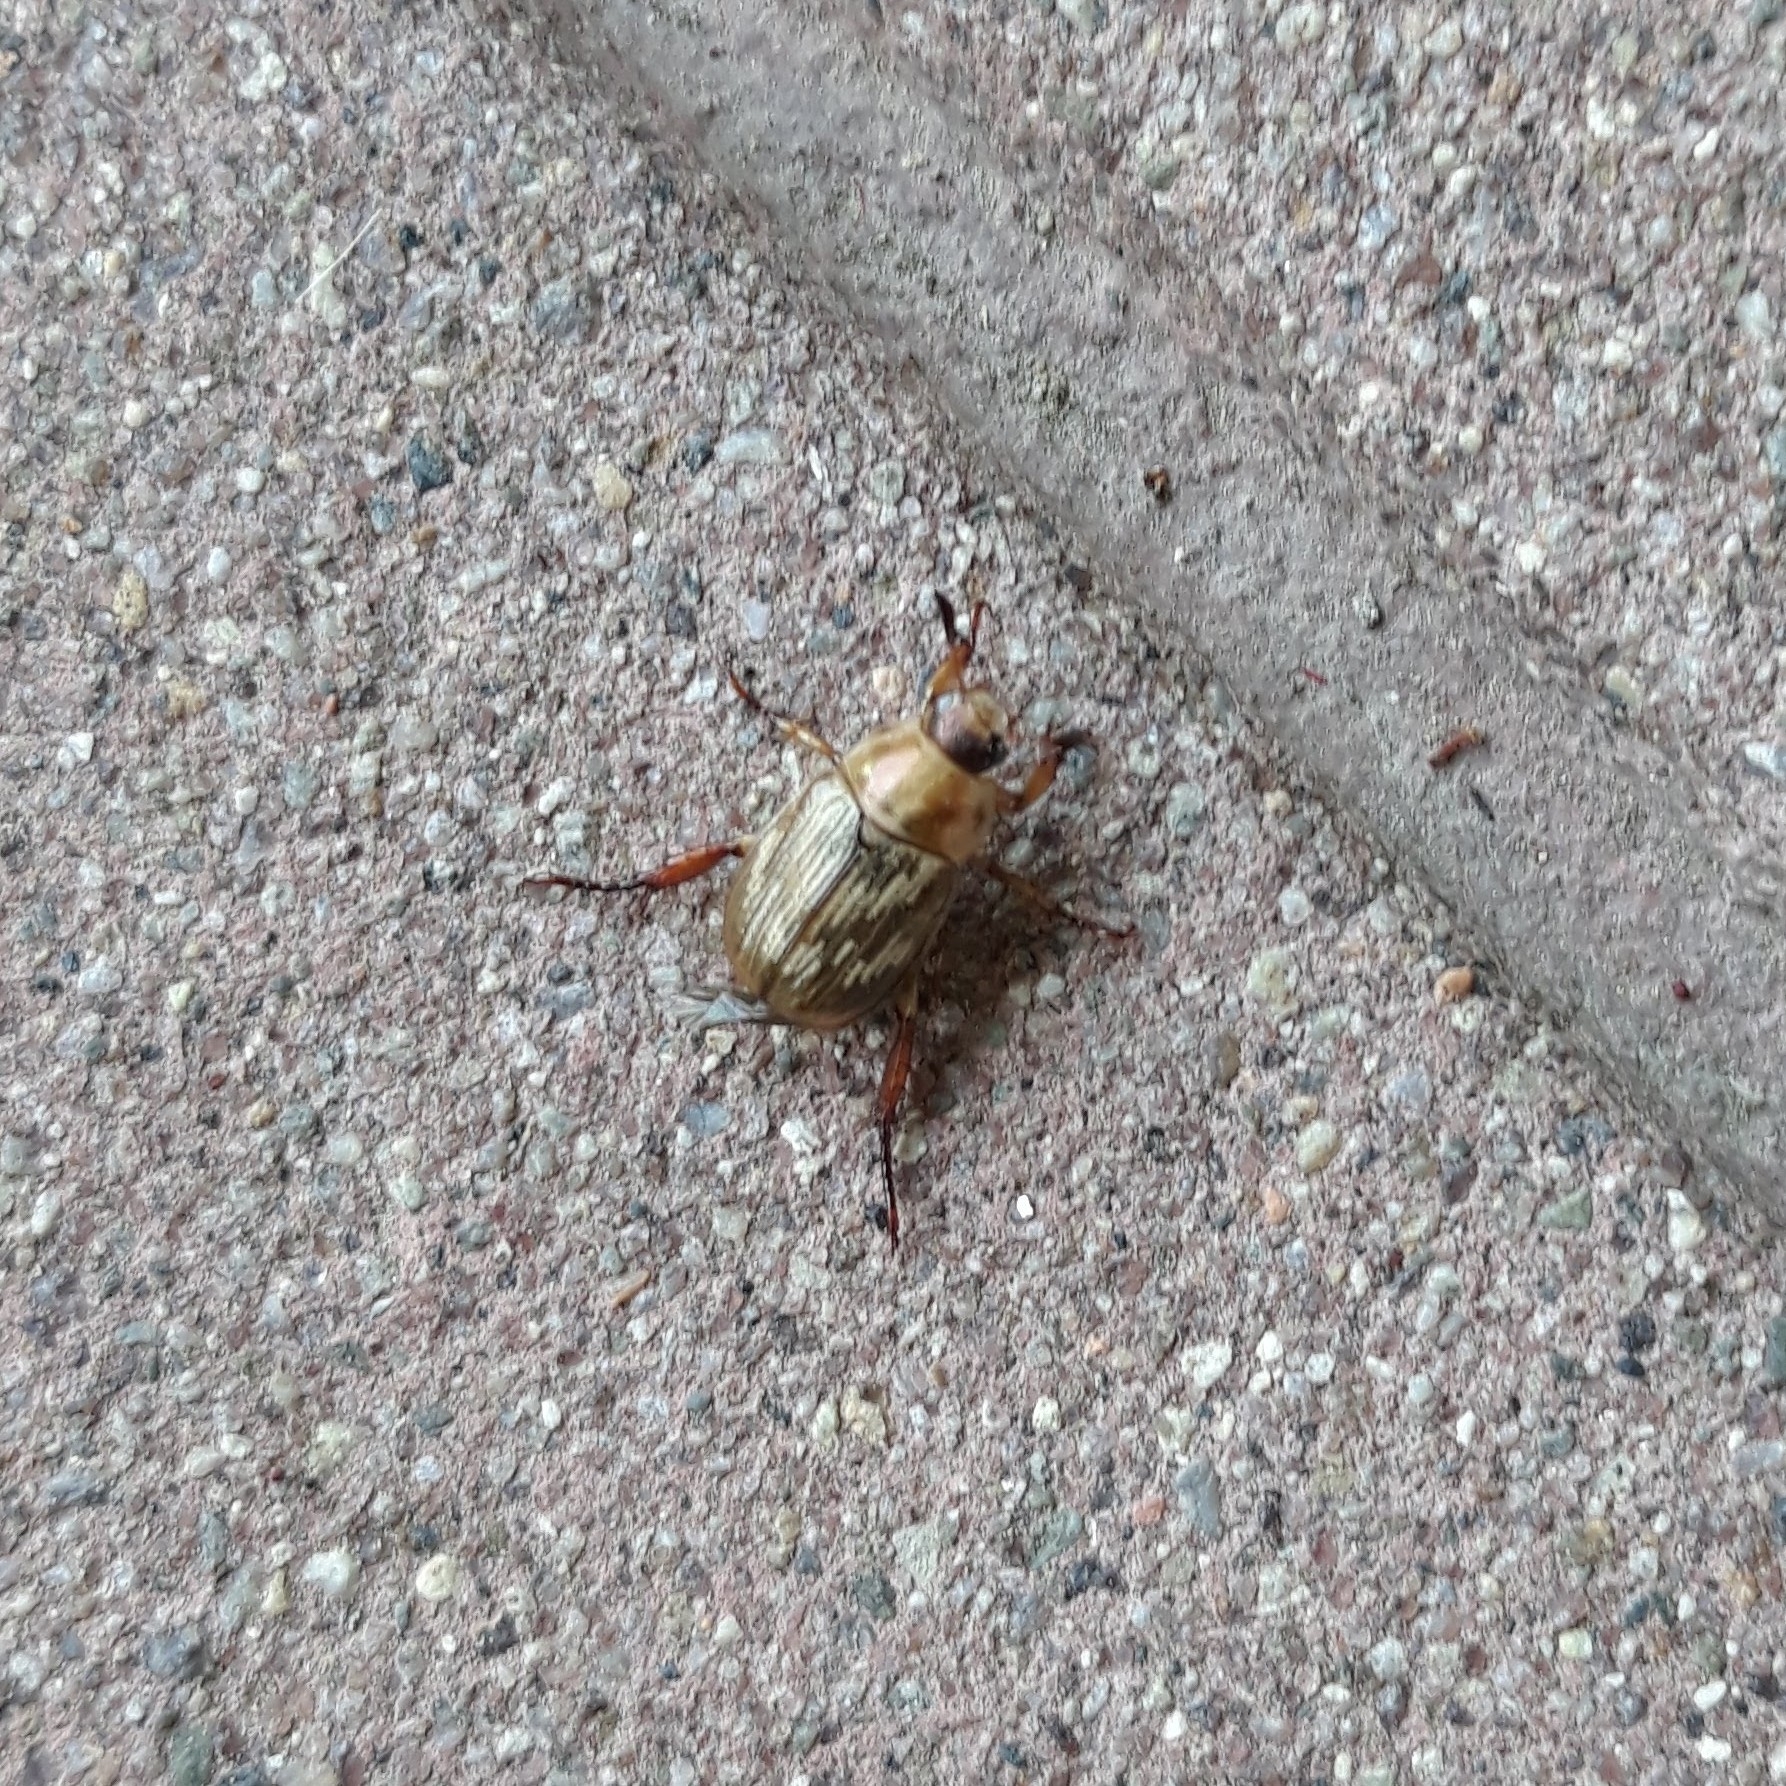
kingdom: Animalia
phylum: Arthropoda
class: Insecta
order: Coleoptera
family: Scarabaeidae
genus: Exomala
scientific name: Exomala orientalis
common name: Oriental beetle
